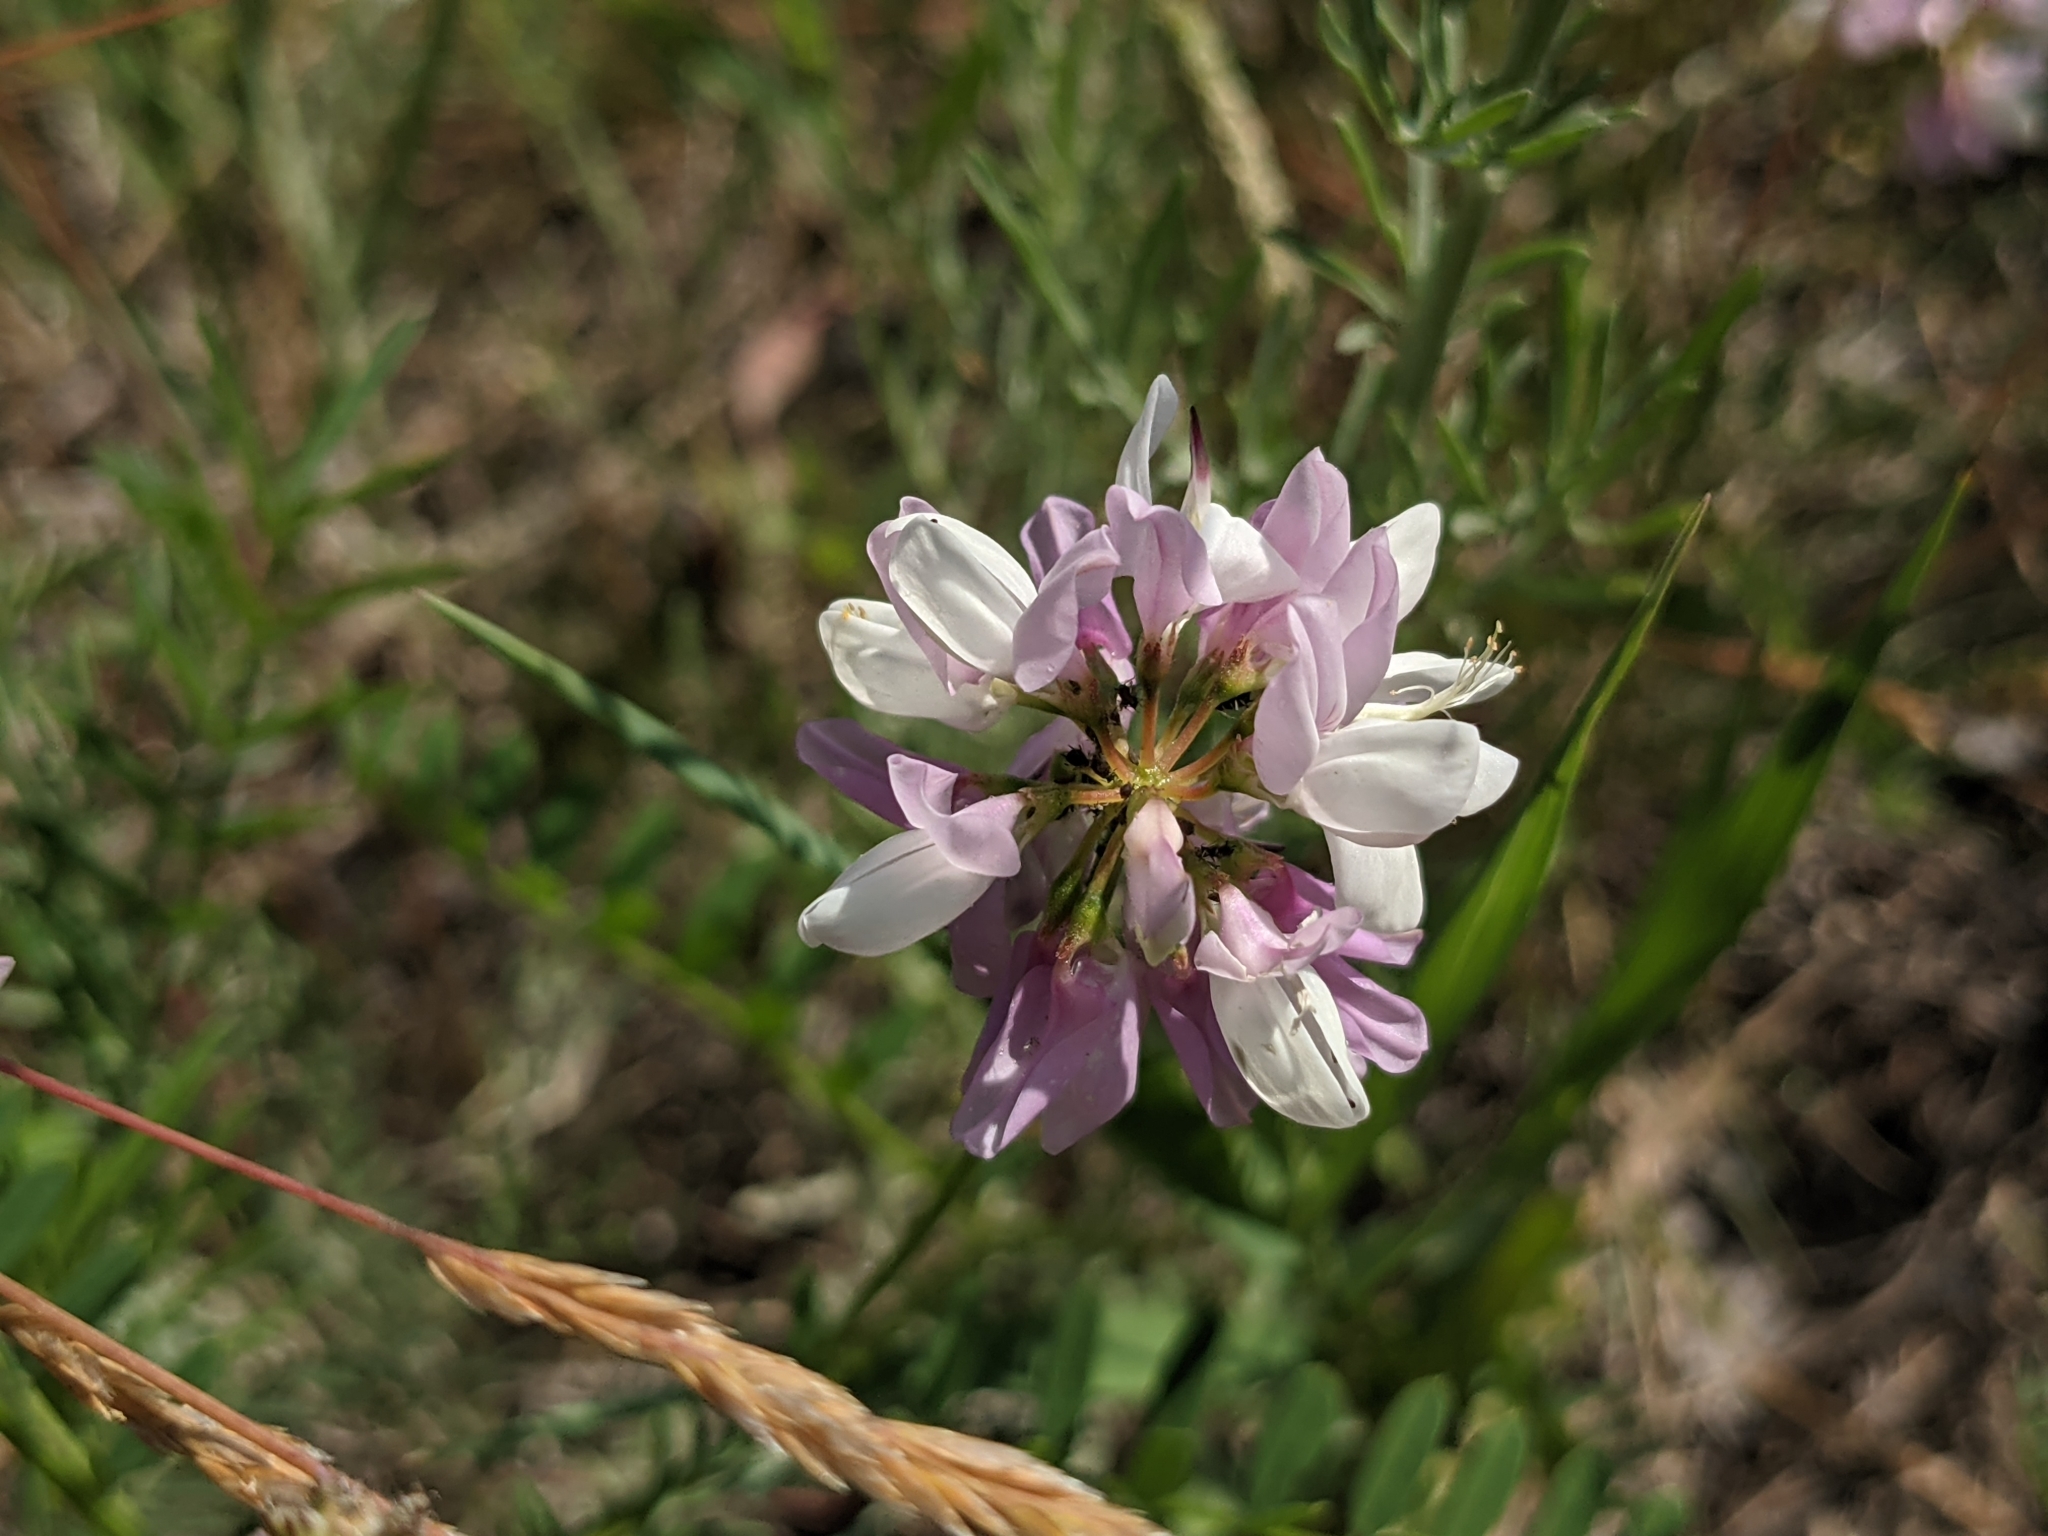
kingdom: Plantae
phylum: Tracheophyta
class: Magnoliopsida
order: Fabales
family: Fabaceae
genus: Coronilla
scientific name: Coronilla varia
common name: Crownvetch
